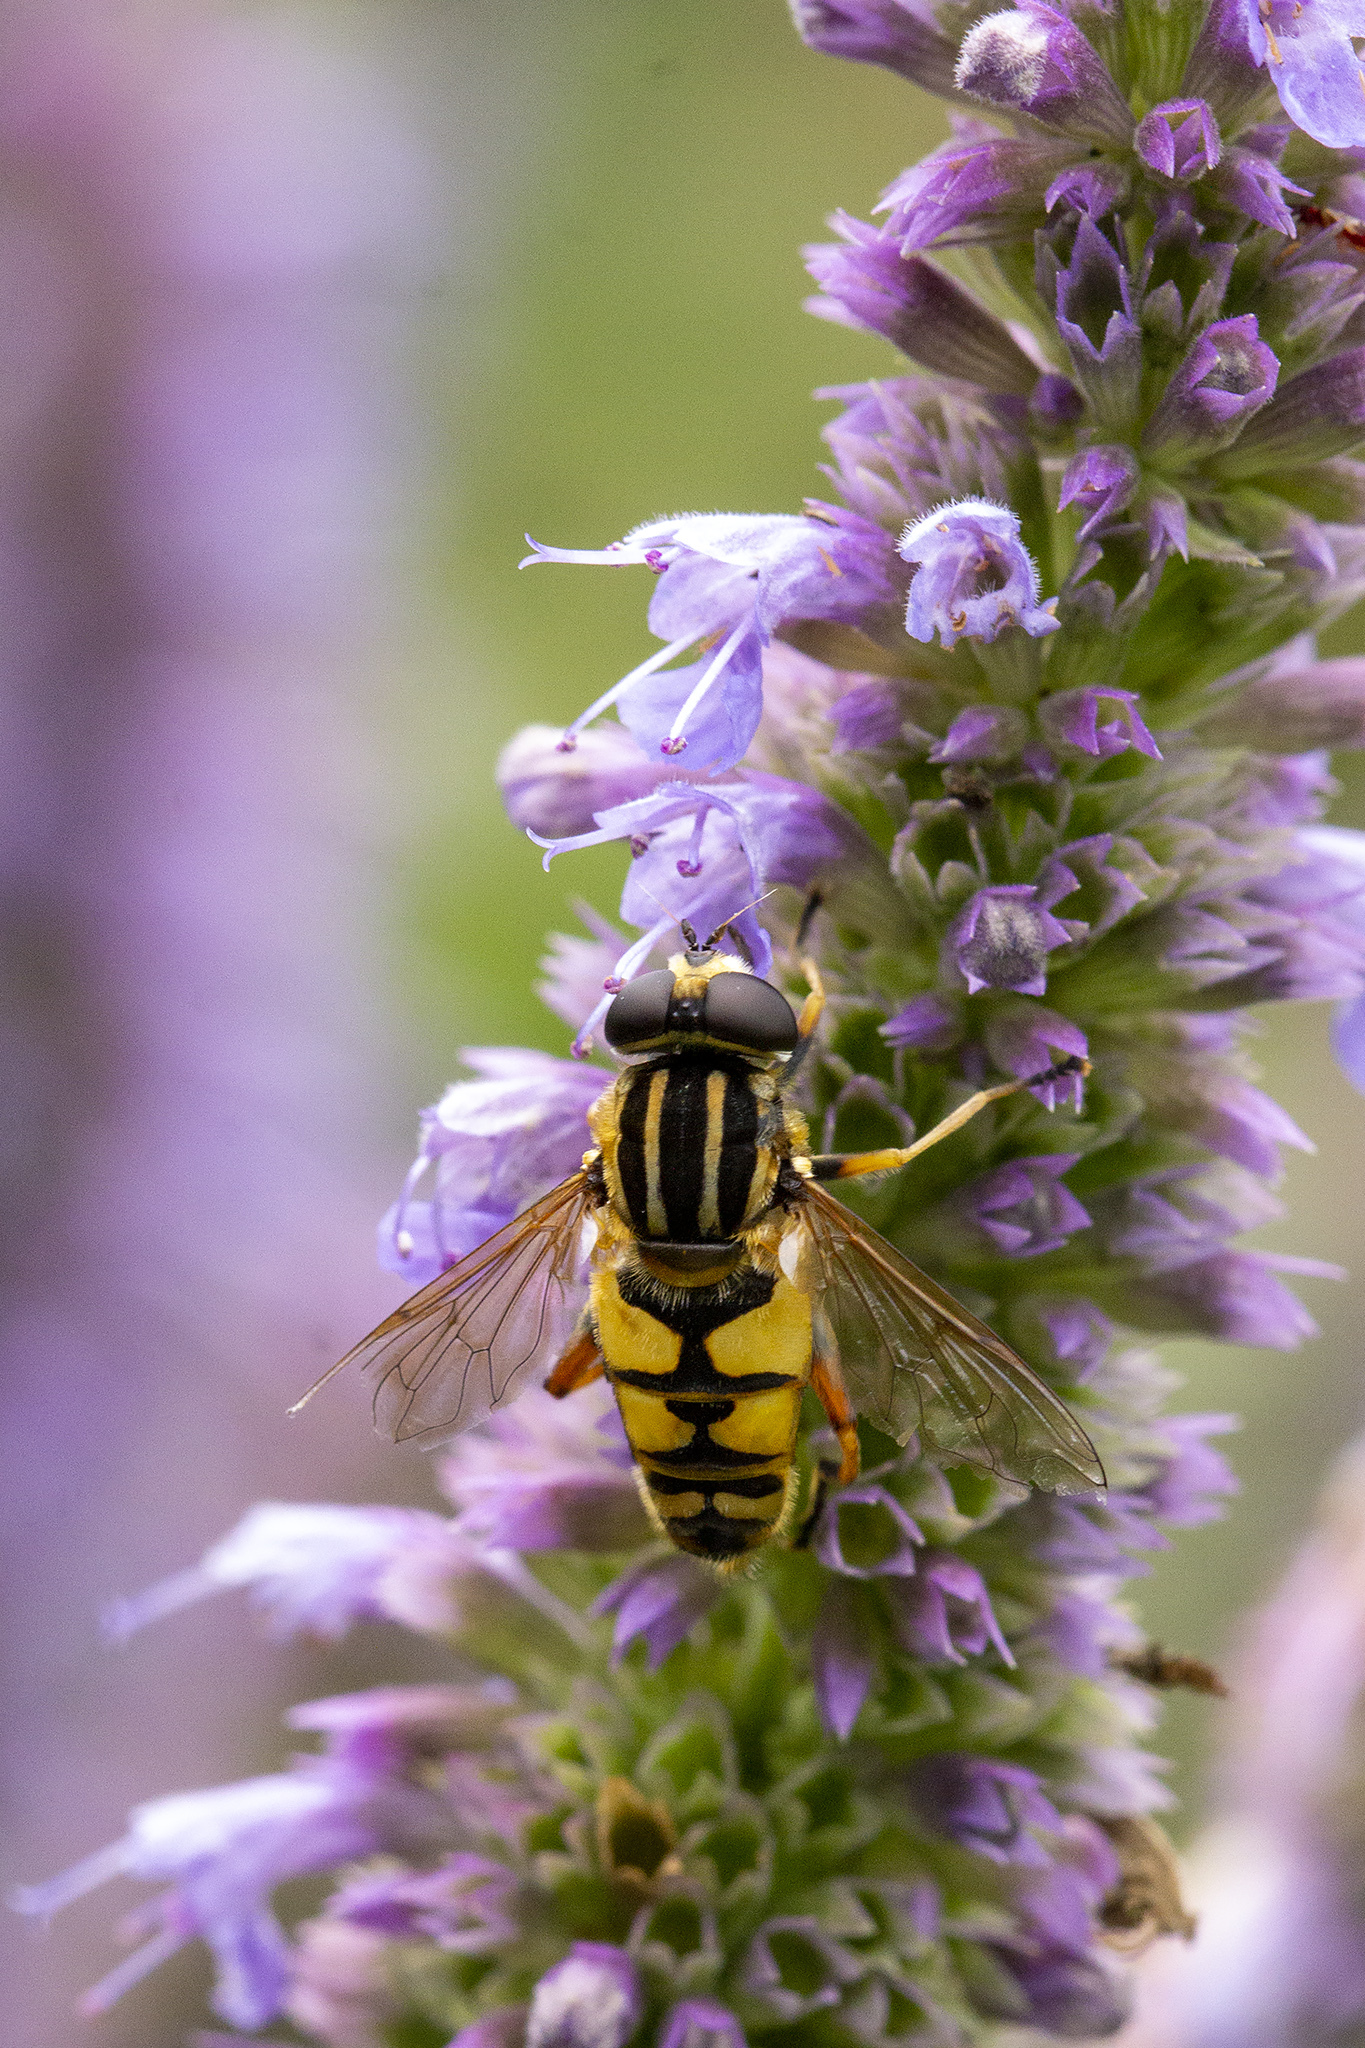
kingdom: Animalia
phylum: Arthropoda
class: Insecta
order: Diptera
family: Syrphidae
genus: Helophilus
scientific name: Helophilus pendulus
